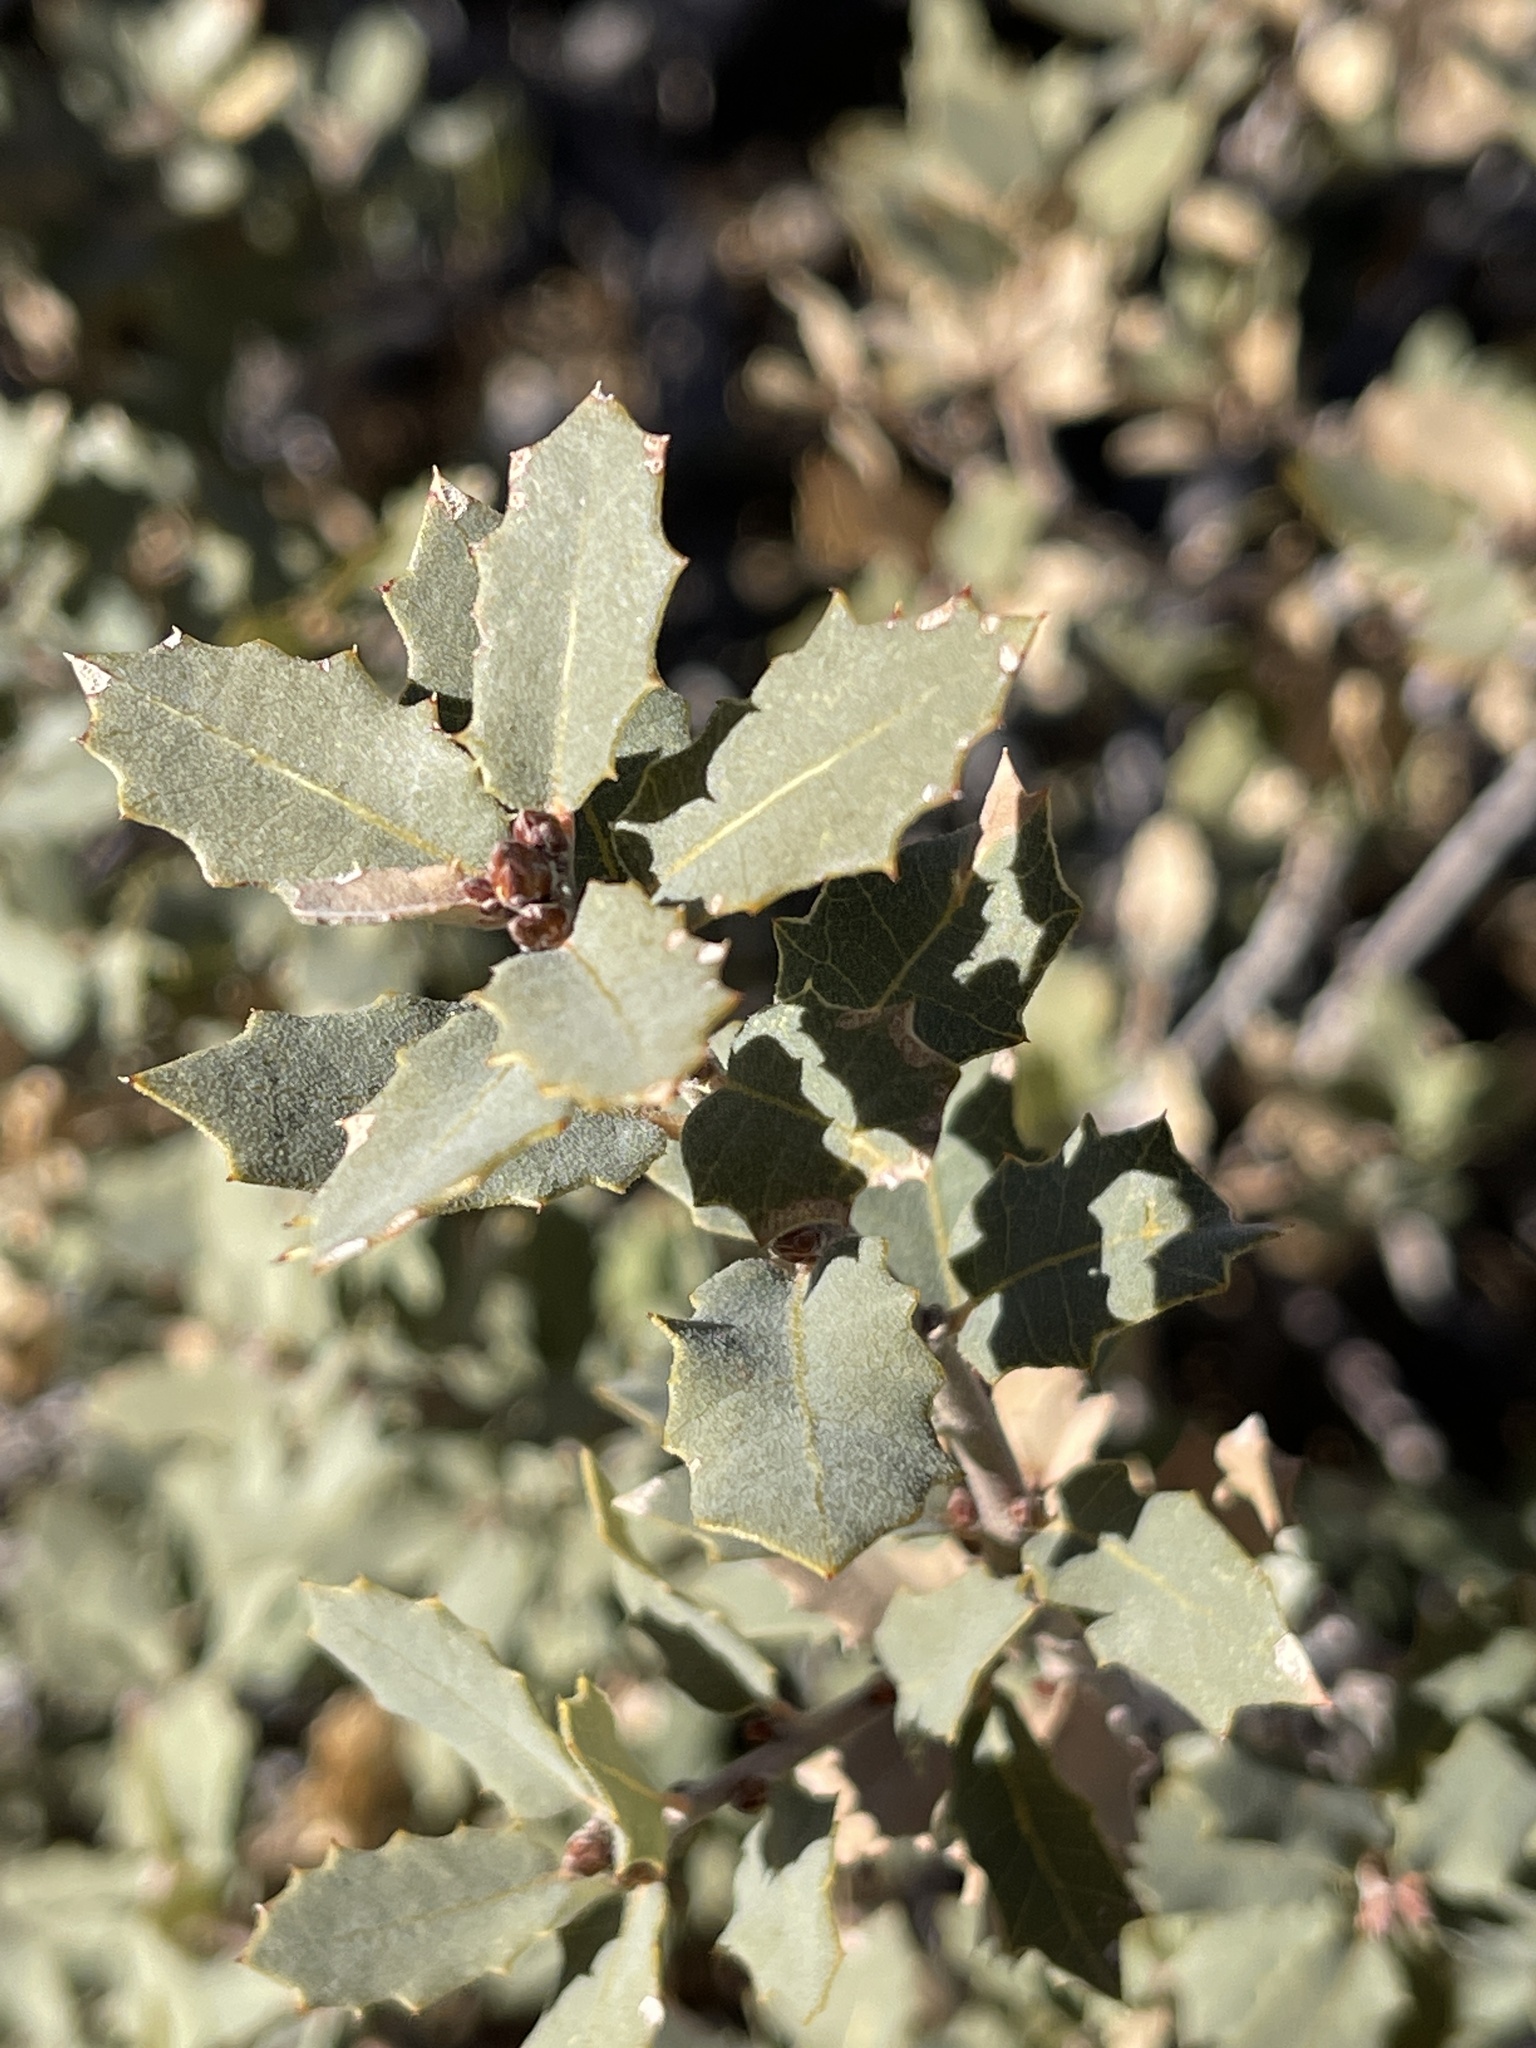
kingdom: Plantae
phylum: Tracheophyta
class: Magnoliopsida
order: Fagales
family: Fagaceae
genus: Quercus
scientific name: Quercus turbinella
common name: Sonoran scrub oak
